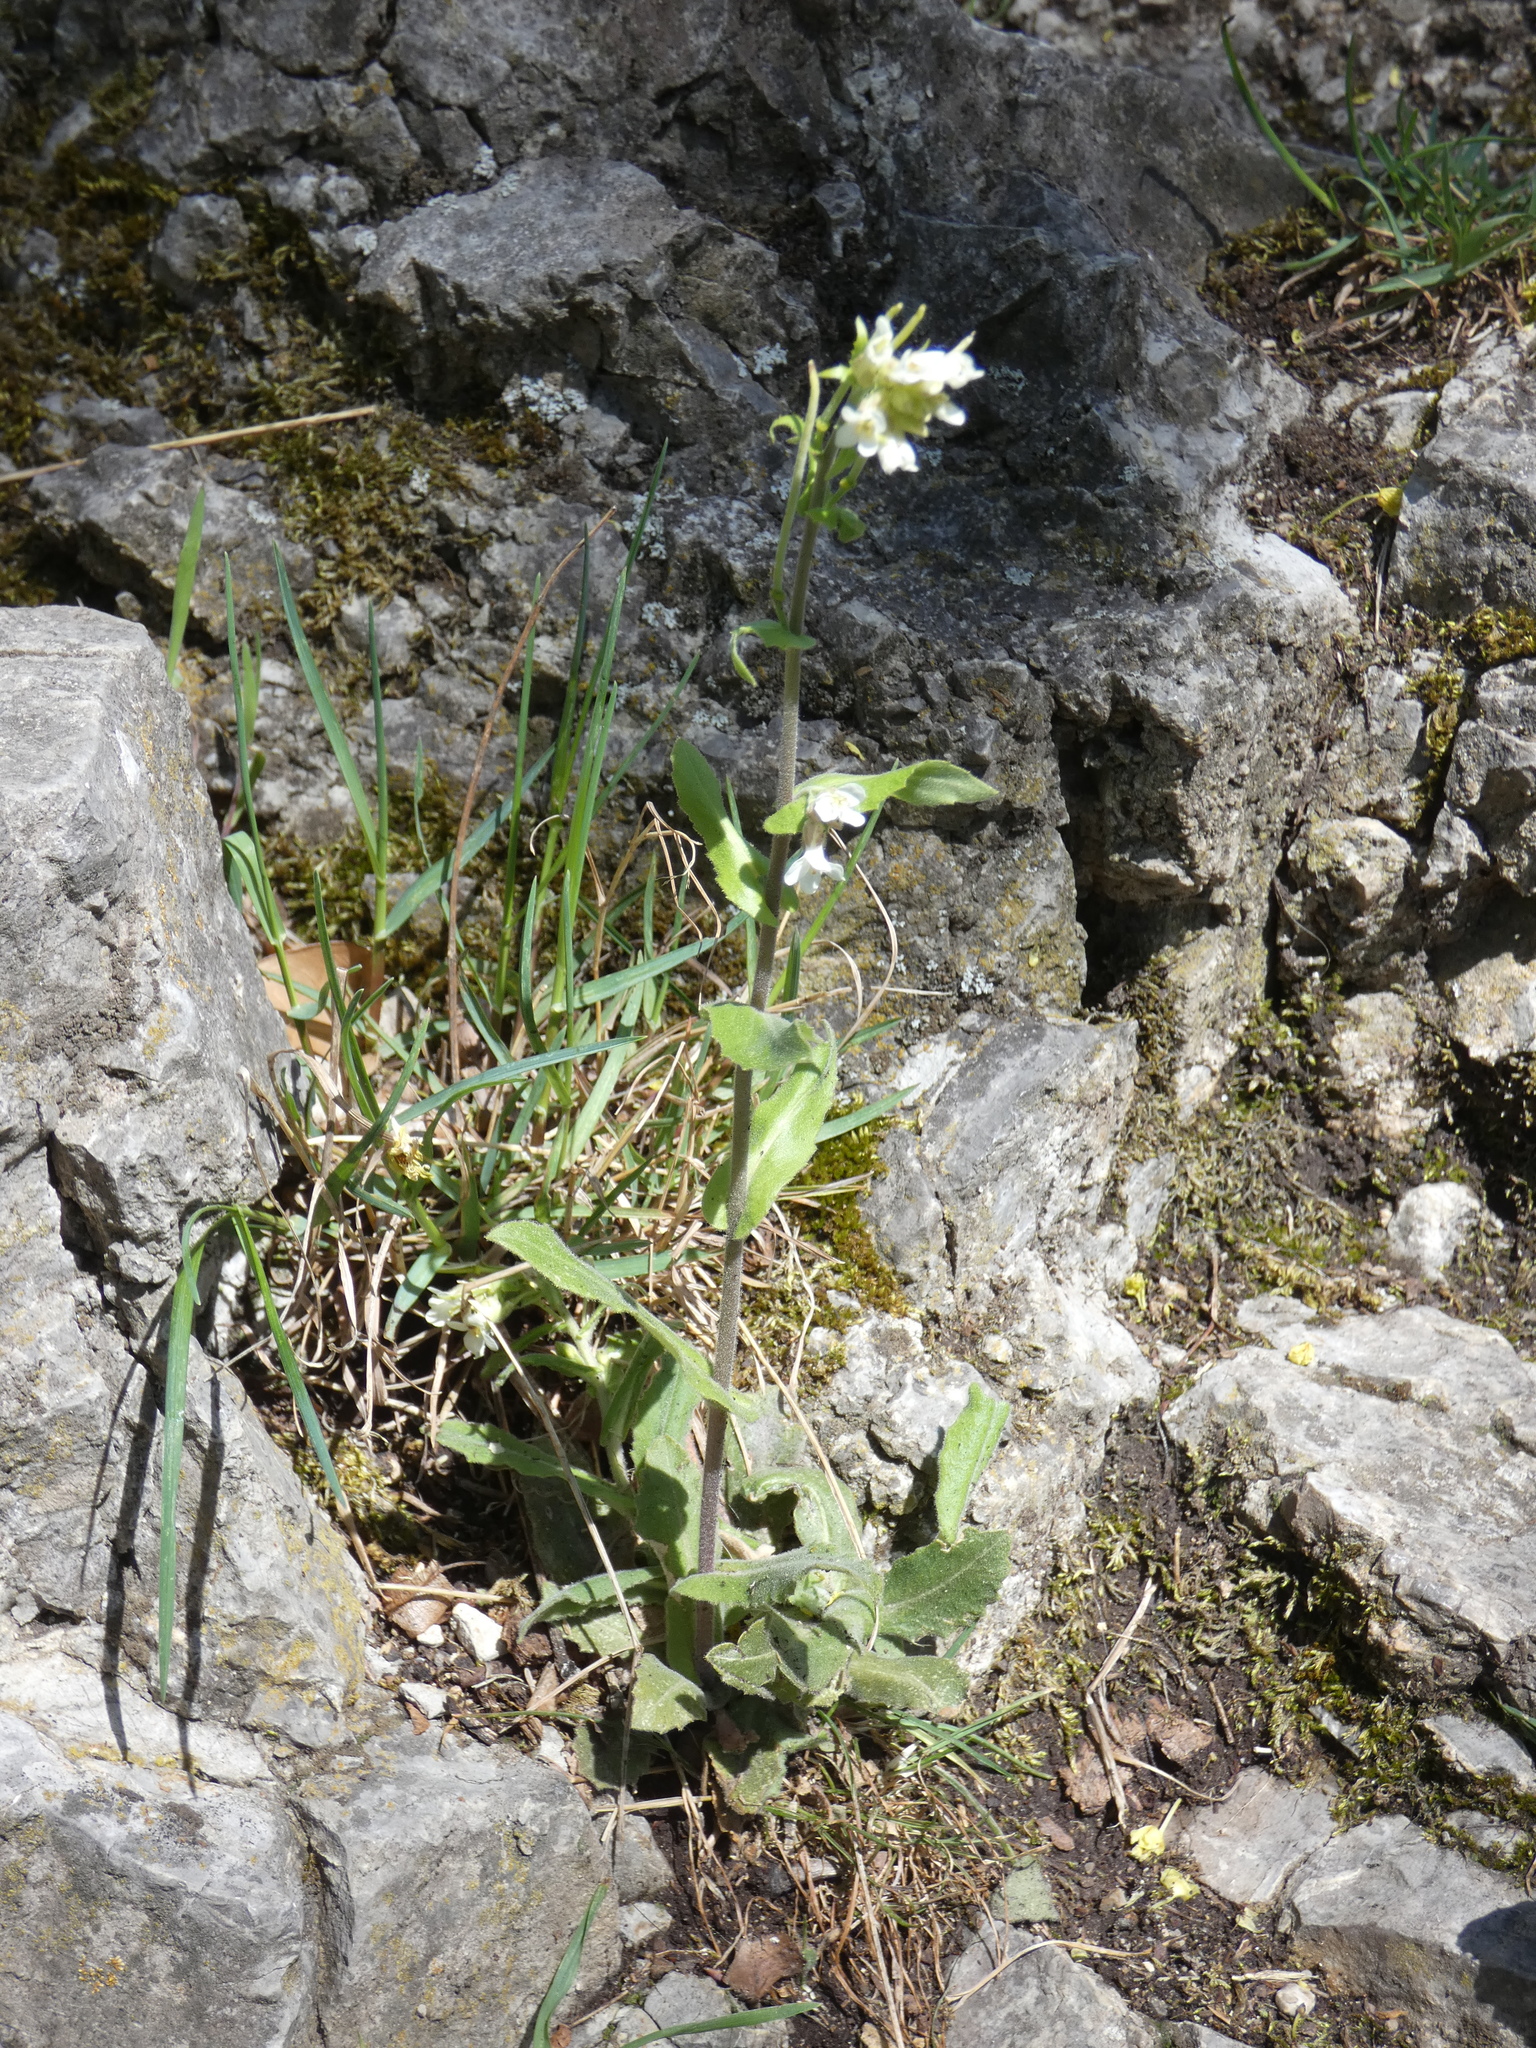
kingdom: Plantae
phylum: Tracheophyta
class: Magnoliopsida
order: Brassicales
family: Brassicaceae
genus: Pseudoturritis
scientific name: Pseudoturritis turrita
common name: Tower cress
